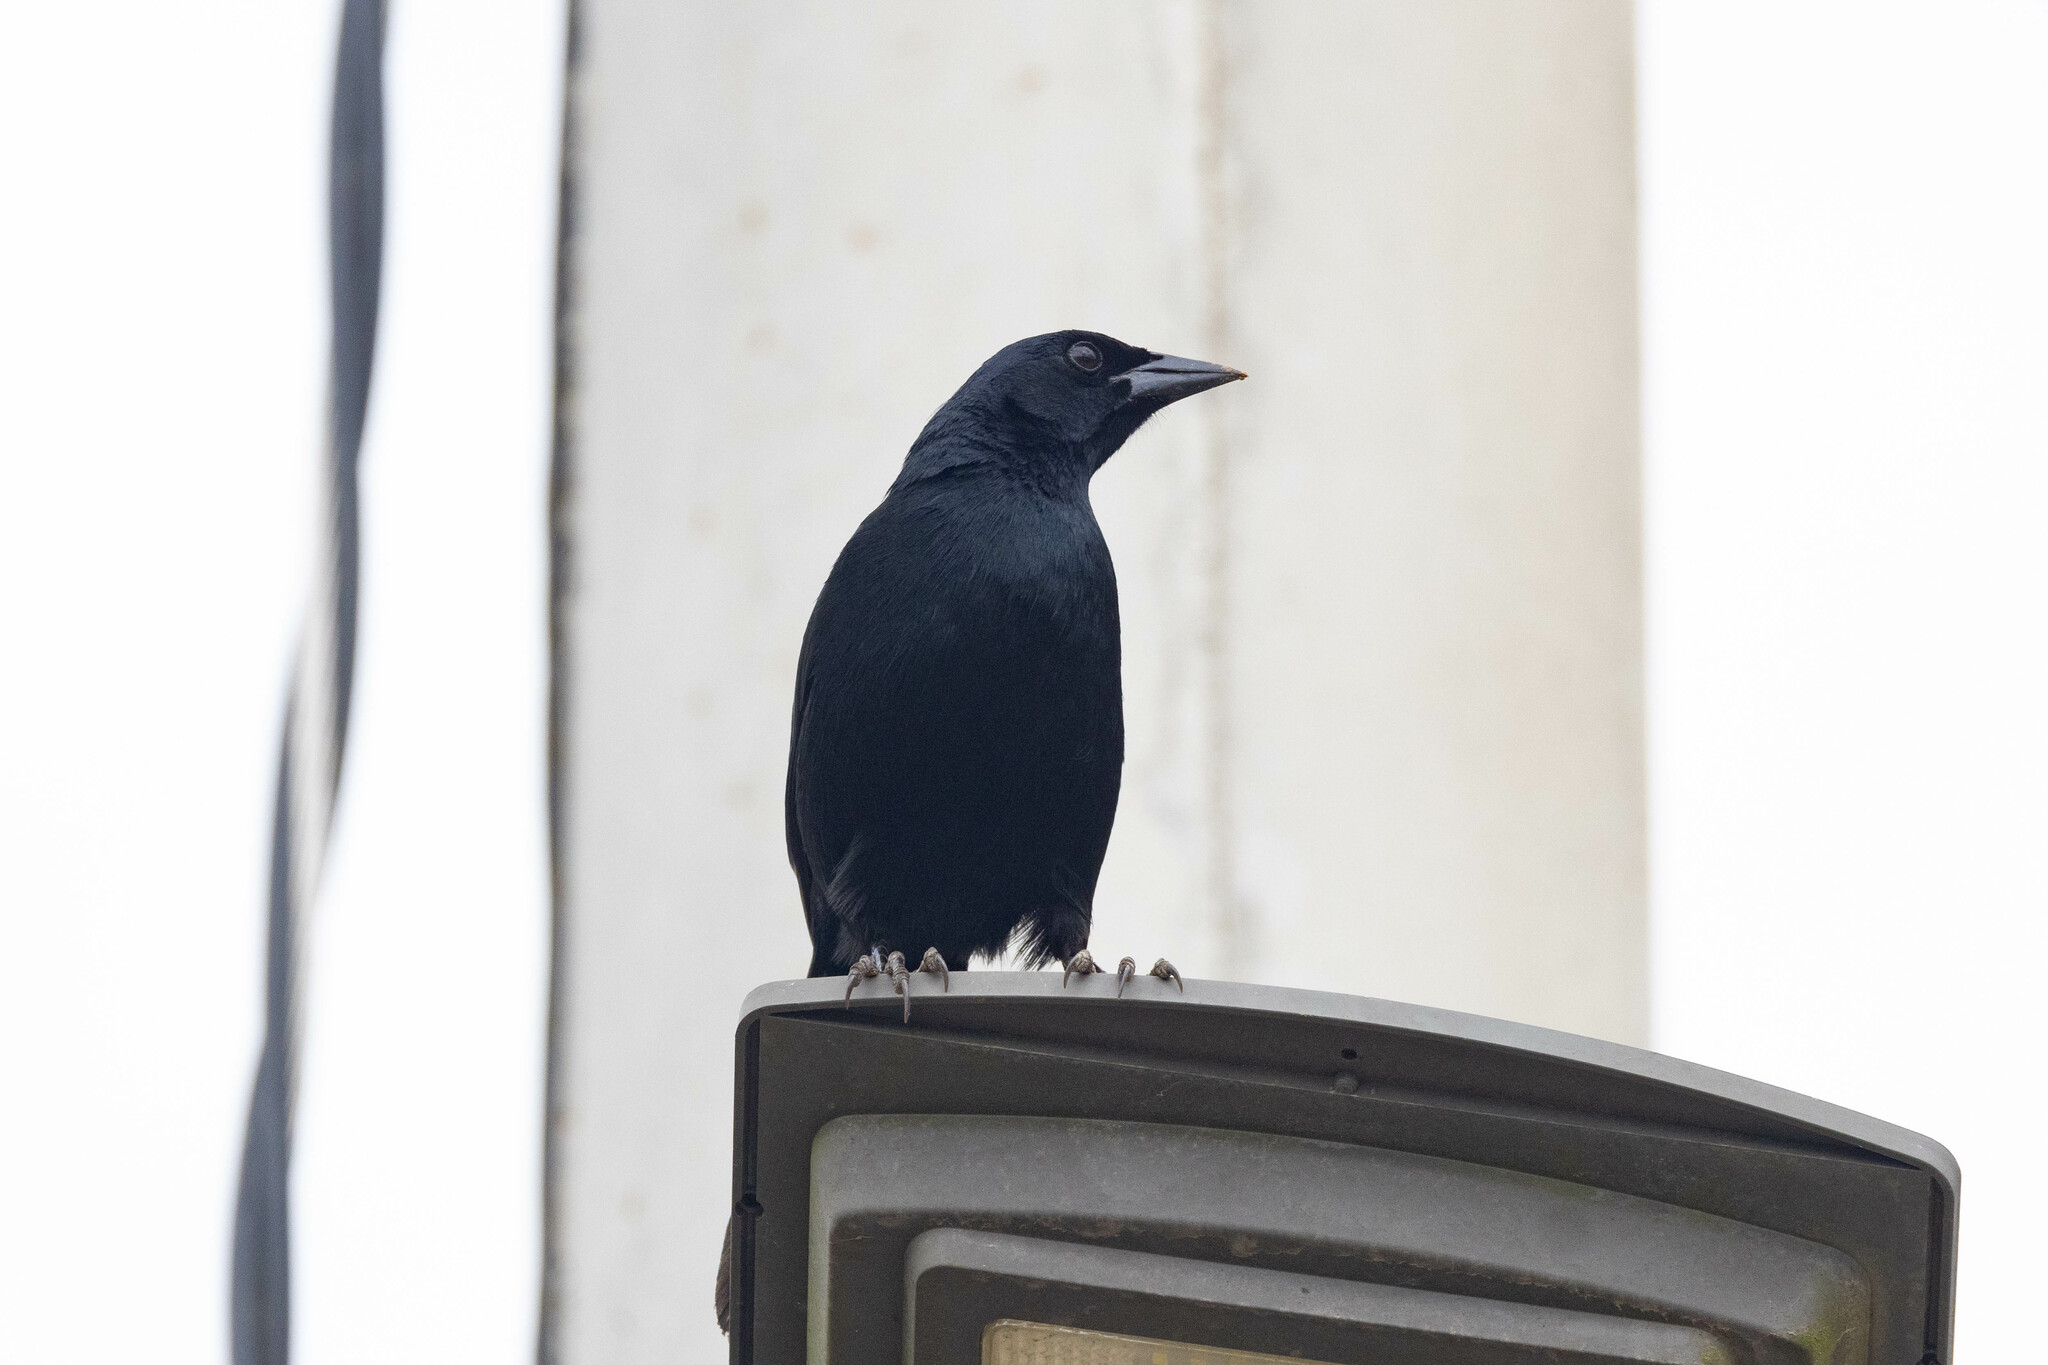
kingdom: Animalia
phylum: Chordata
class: Aves
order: Passeriformes
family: Icteridae
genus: Dives
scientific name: Dives warczewiczi
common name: Scrub blackbird
